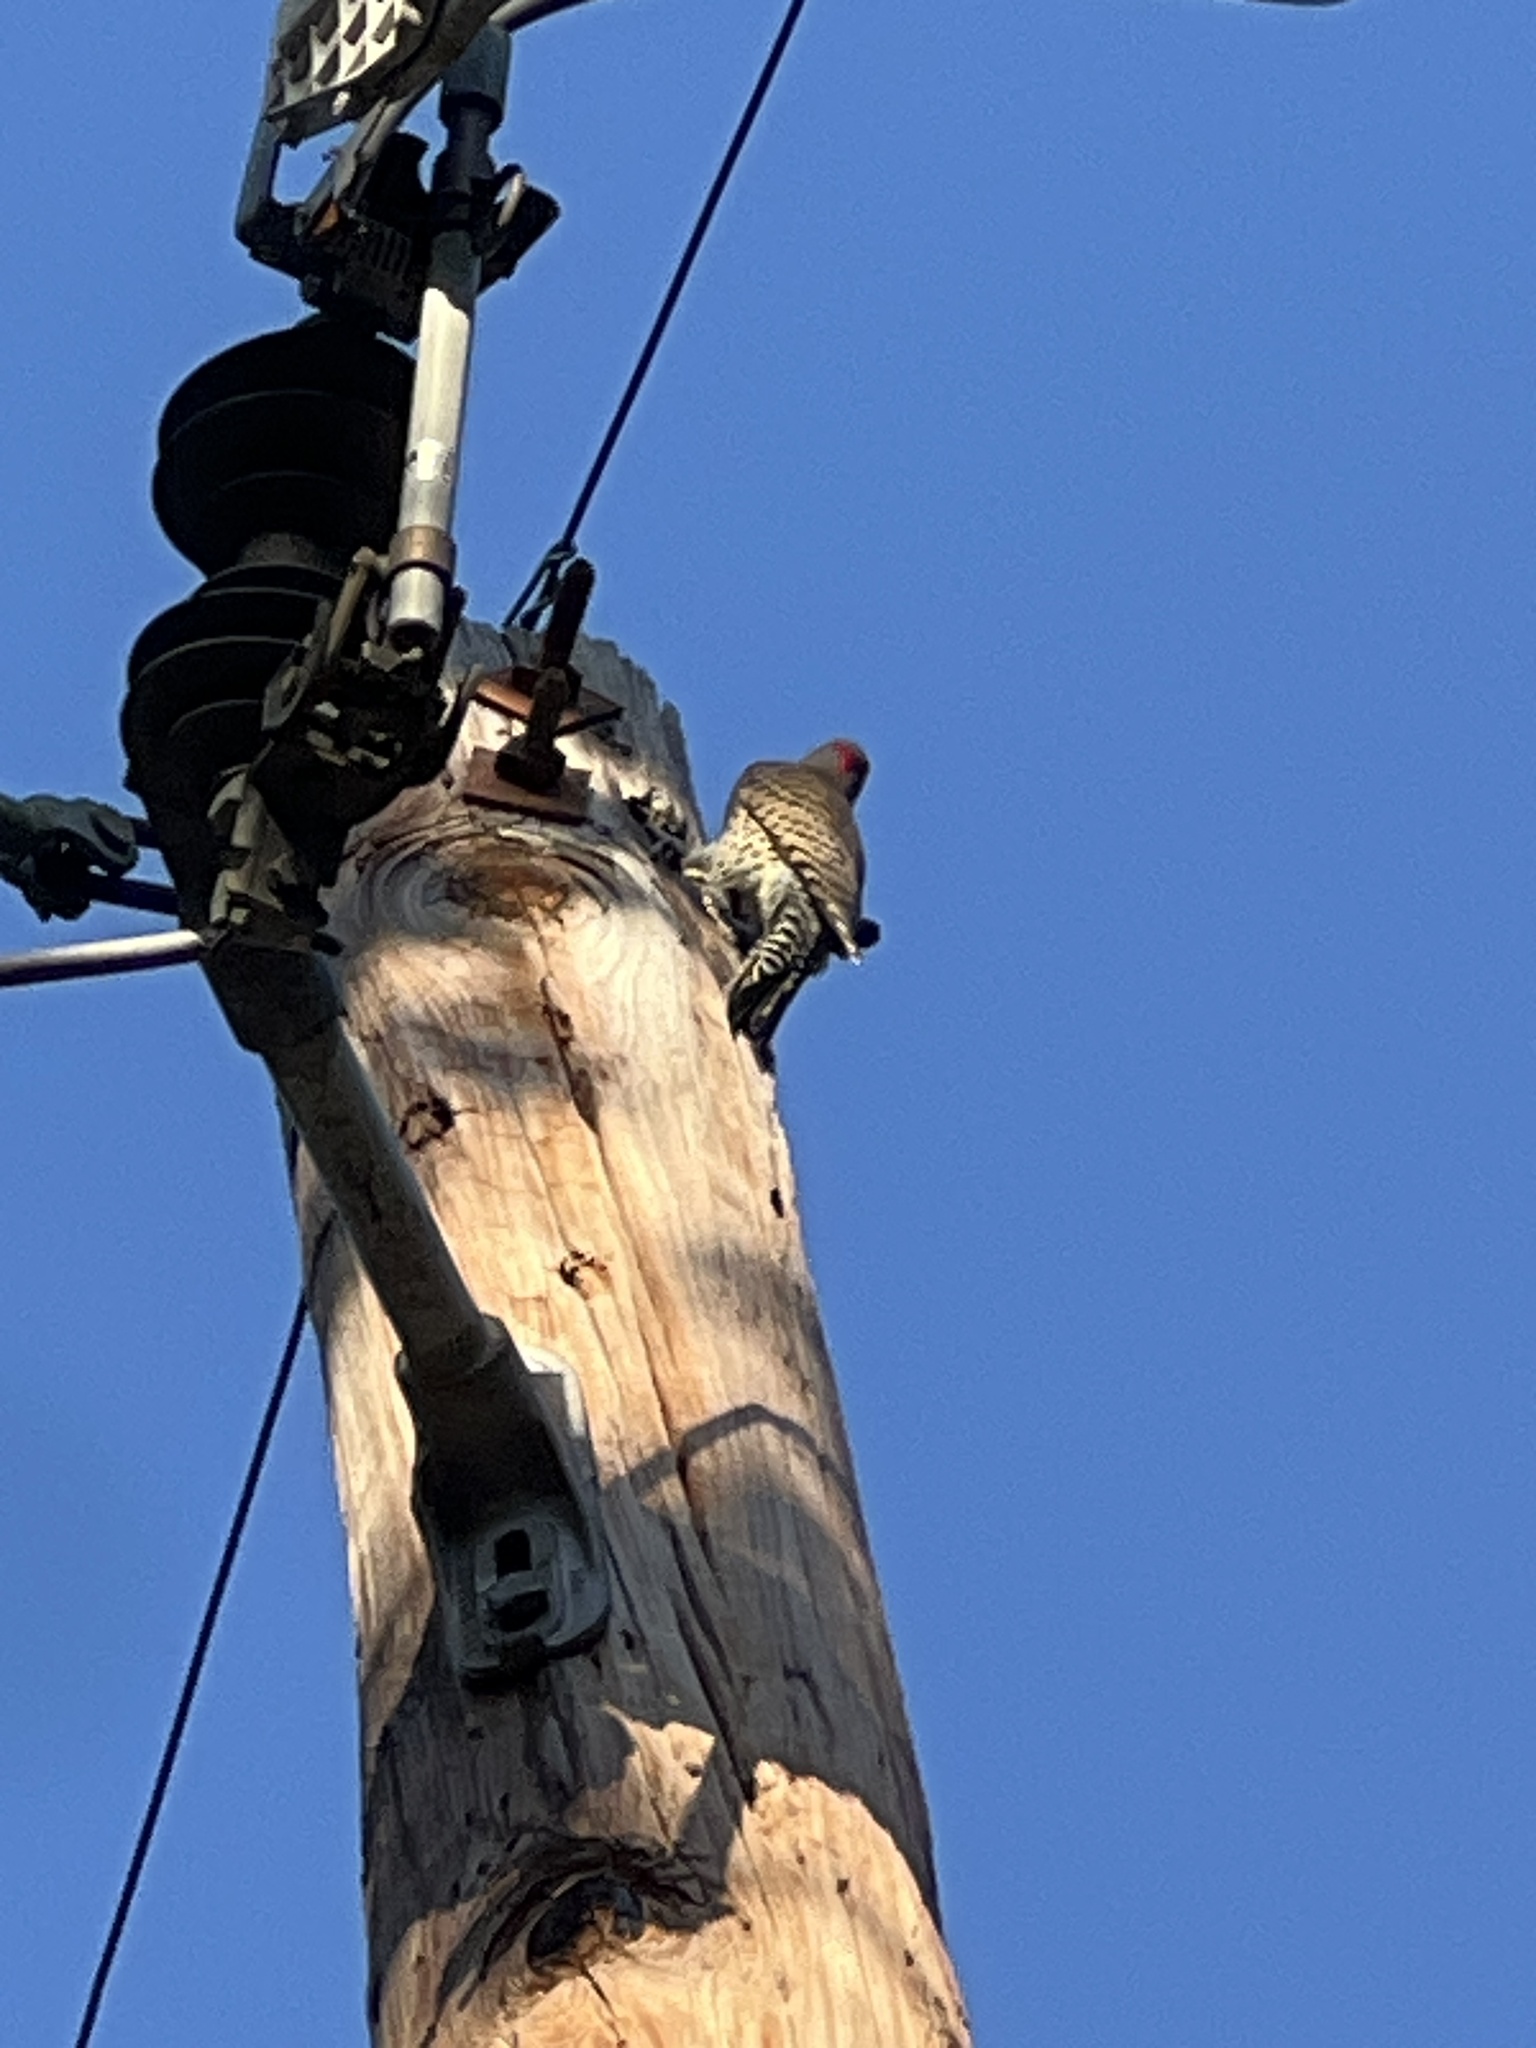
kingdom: Animalia
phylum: Chordata
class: Aves
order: Piciformes
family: Picidae
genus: Colaptes
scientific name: Colaptes auratus
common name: Northern flicker
